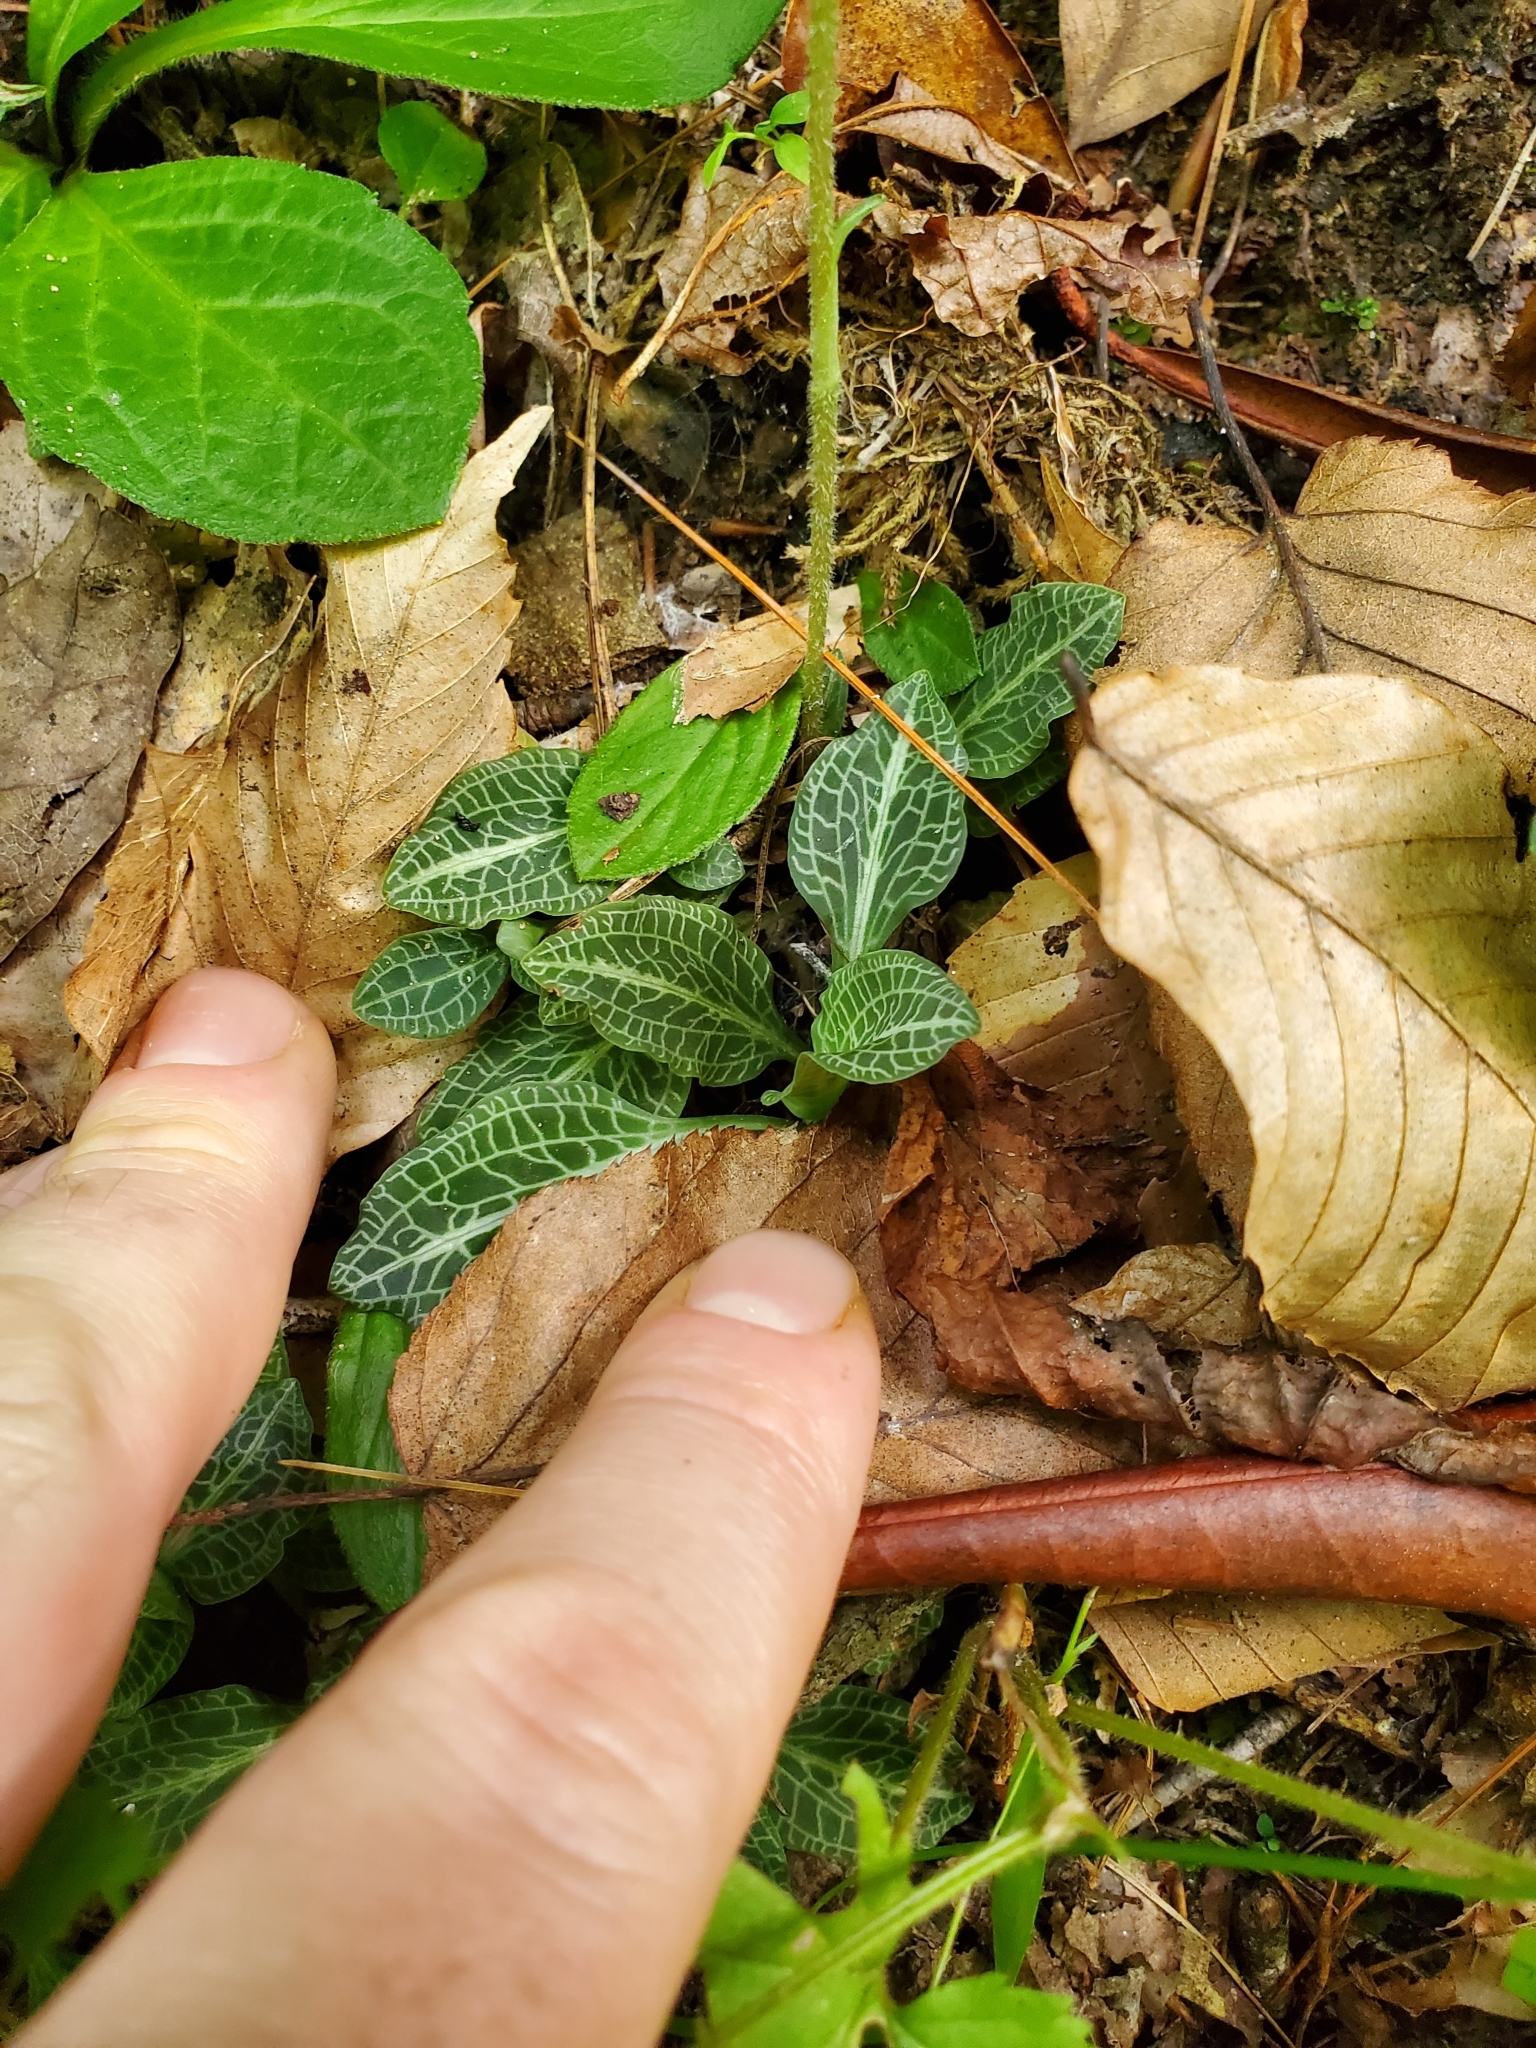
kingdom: Plantae
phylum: Tracheophyta
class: Liliopsida
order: Asparagales
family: Orchidaceae
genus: Goodyera
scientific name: Goodyera pubescens
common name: Downy rattlesnake-plantain
